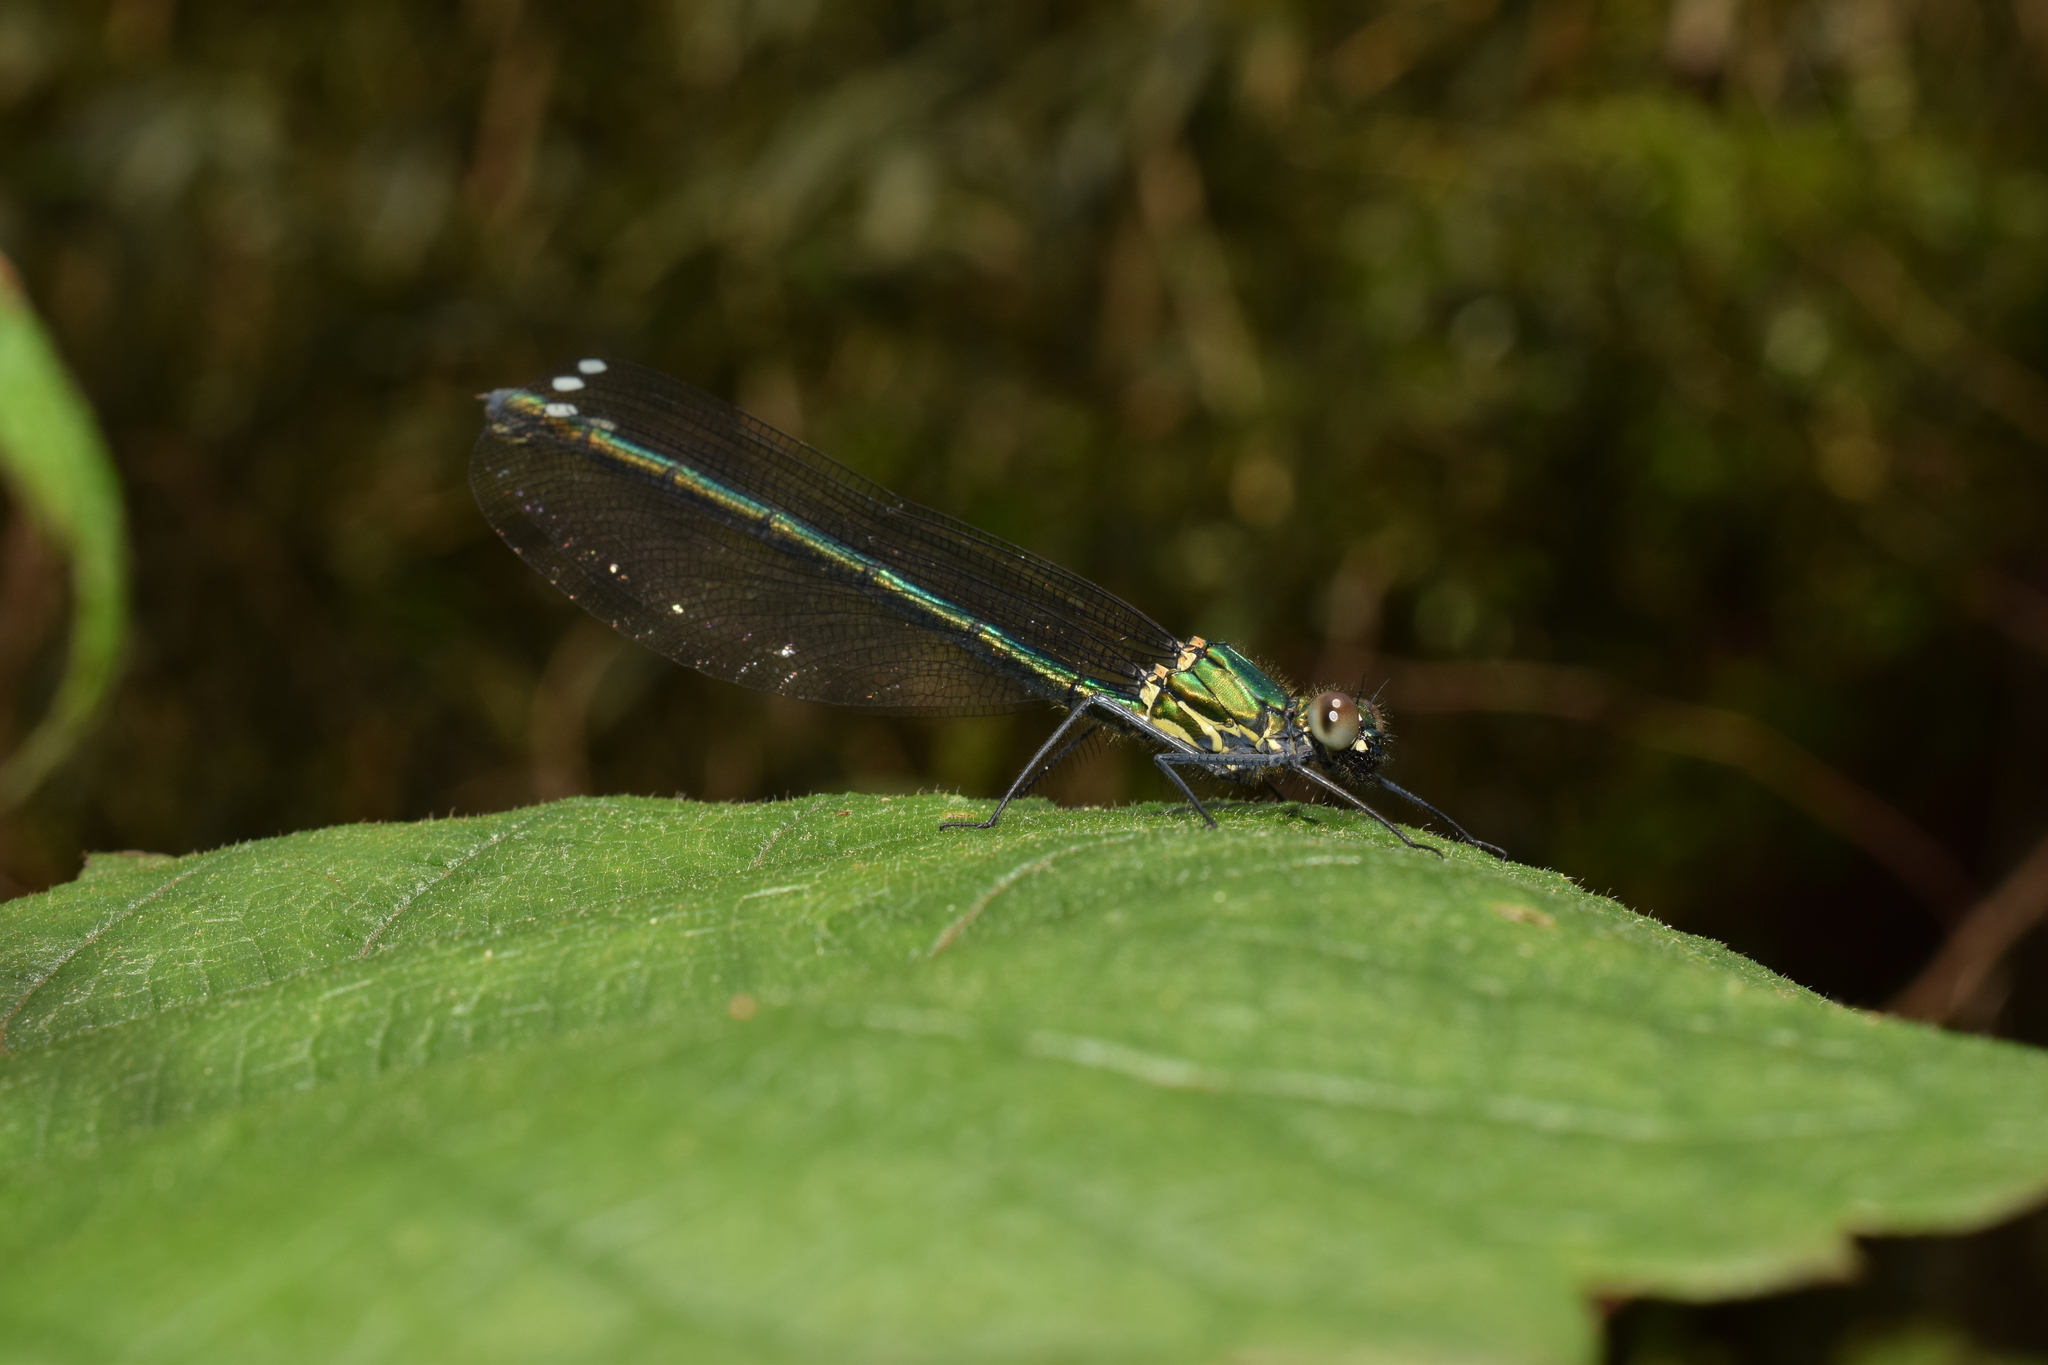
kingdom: Animalia
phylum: Arthropoda
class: Insecta
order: Odonata
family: Calopterygidae
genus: Mnais
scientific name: Mnais pruinosa
